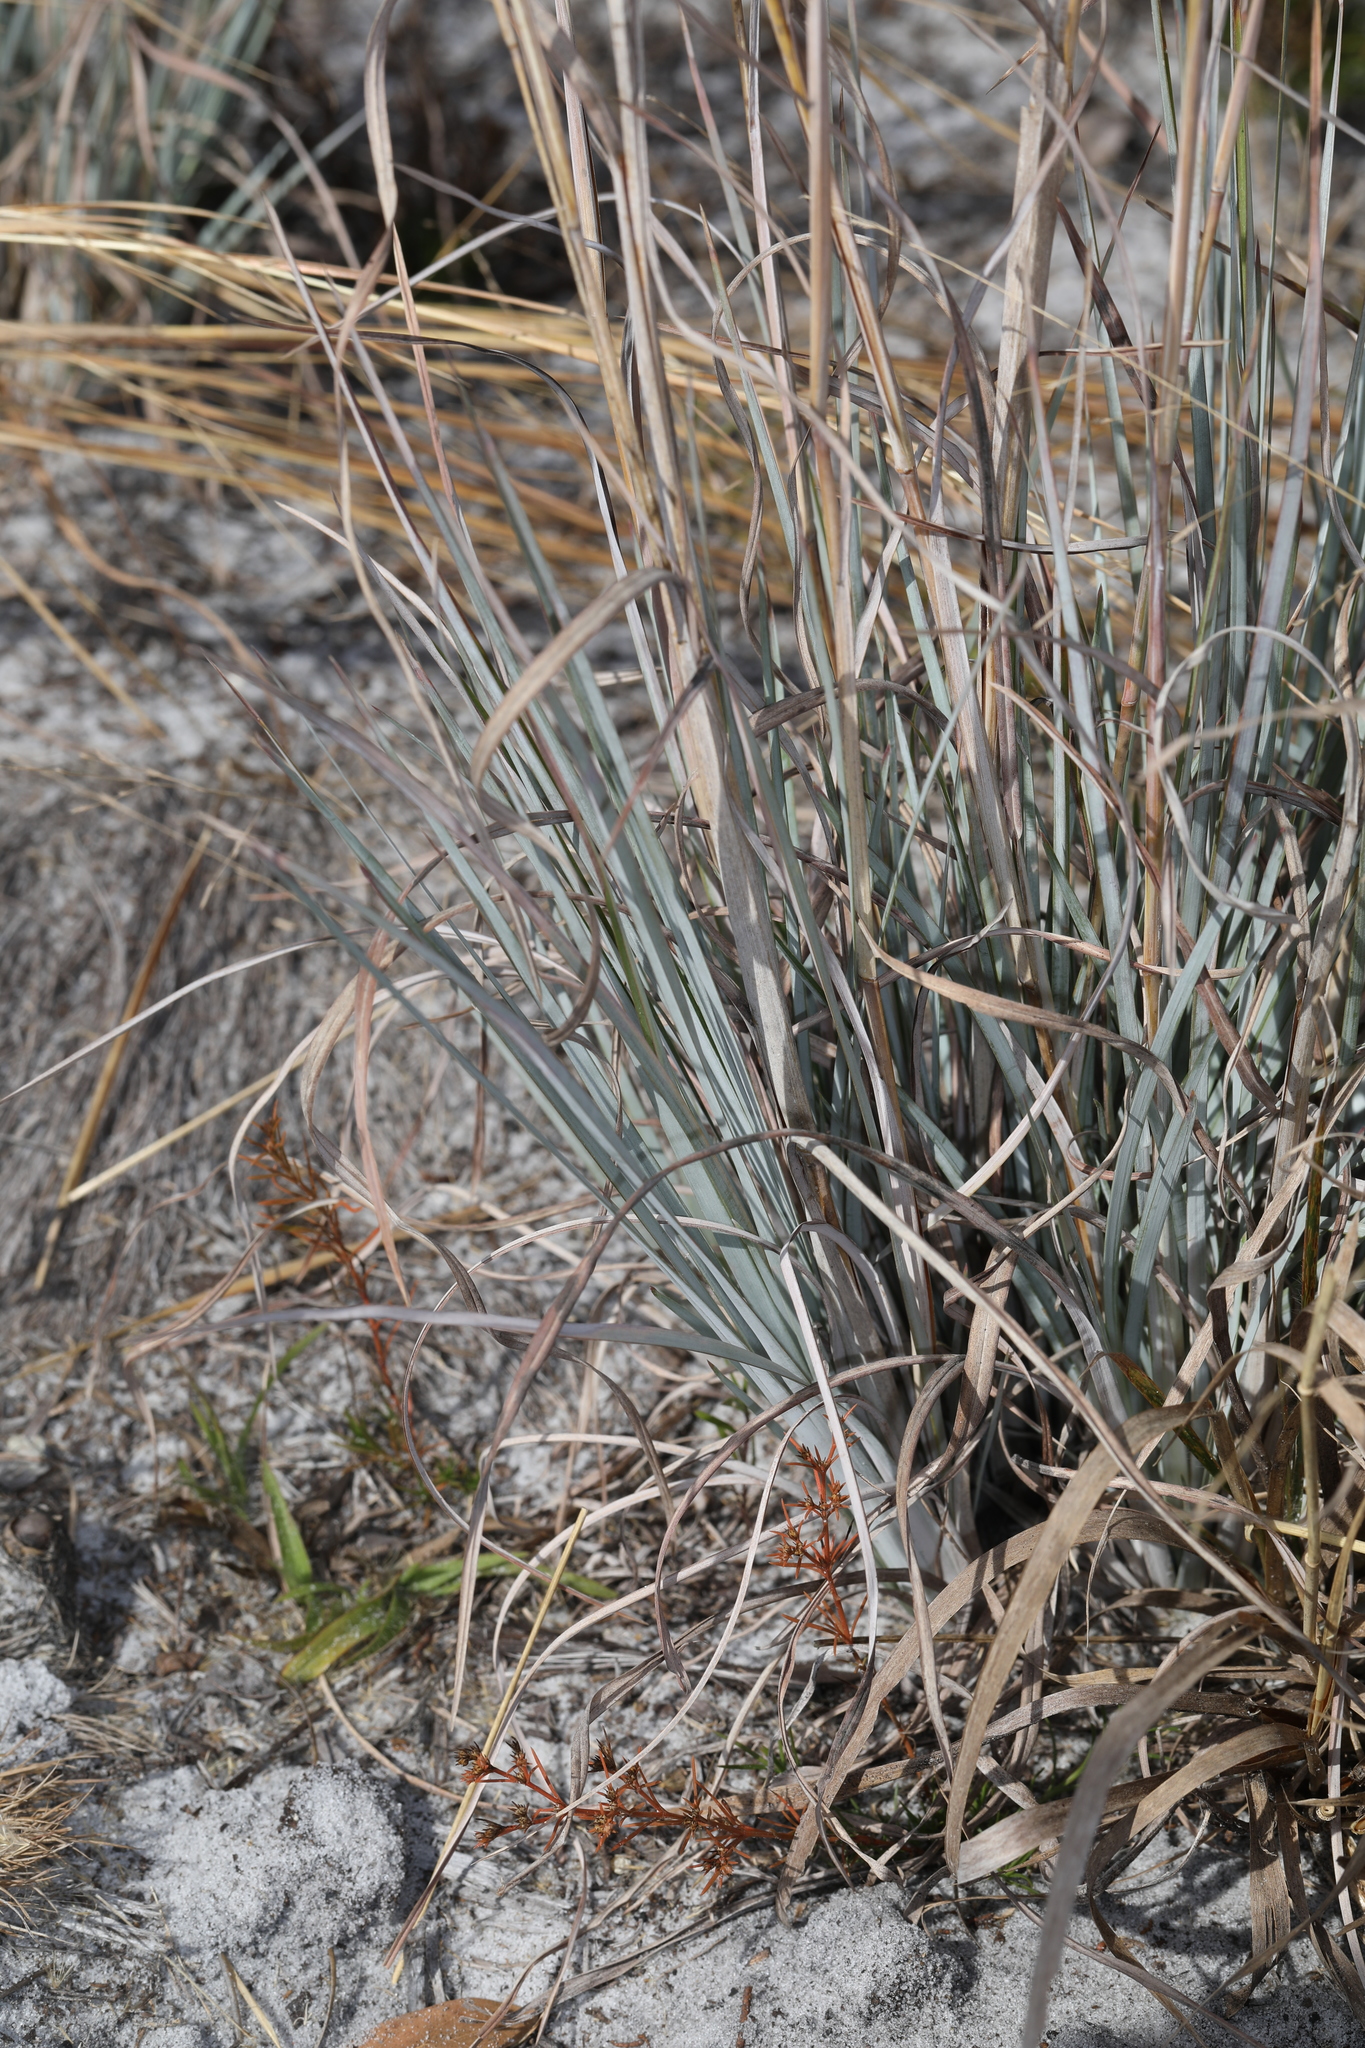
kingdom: Plantae
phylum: Tracheophyta
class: Liliopsida
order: Poales
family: Poaceae
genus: Andropogon
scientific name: Andropogon capillipes
